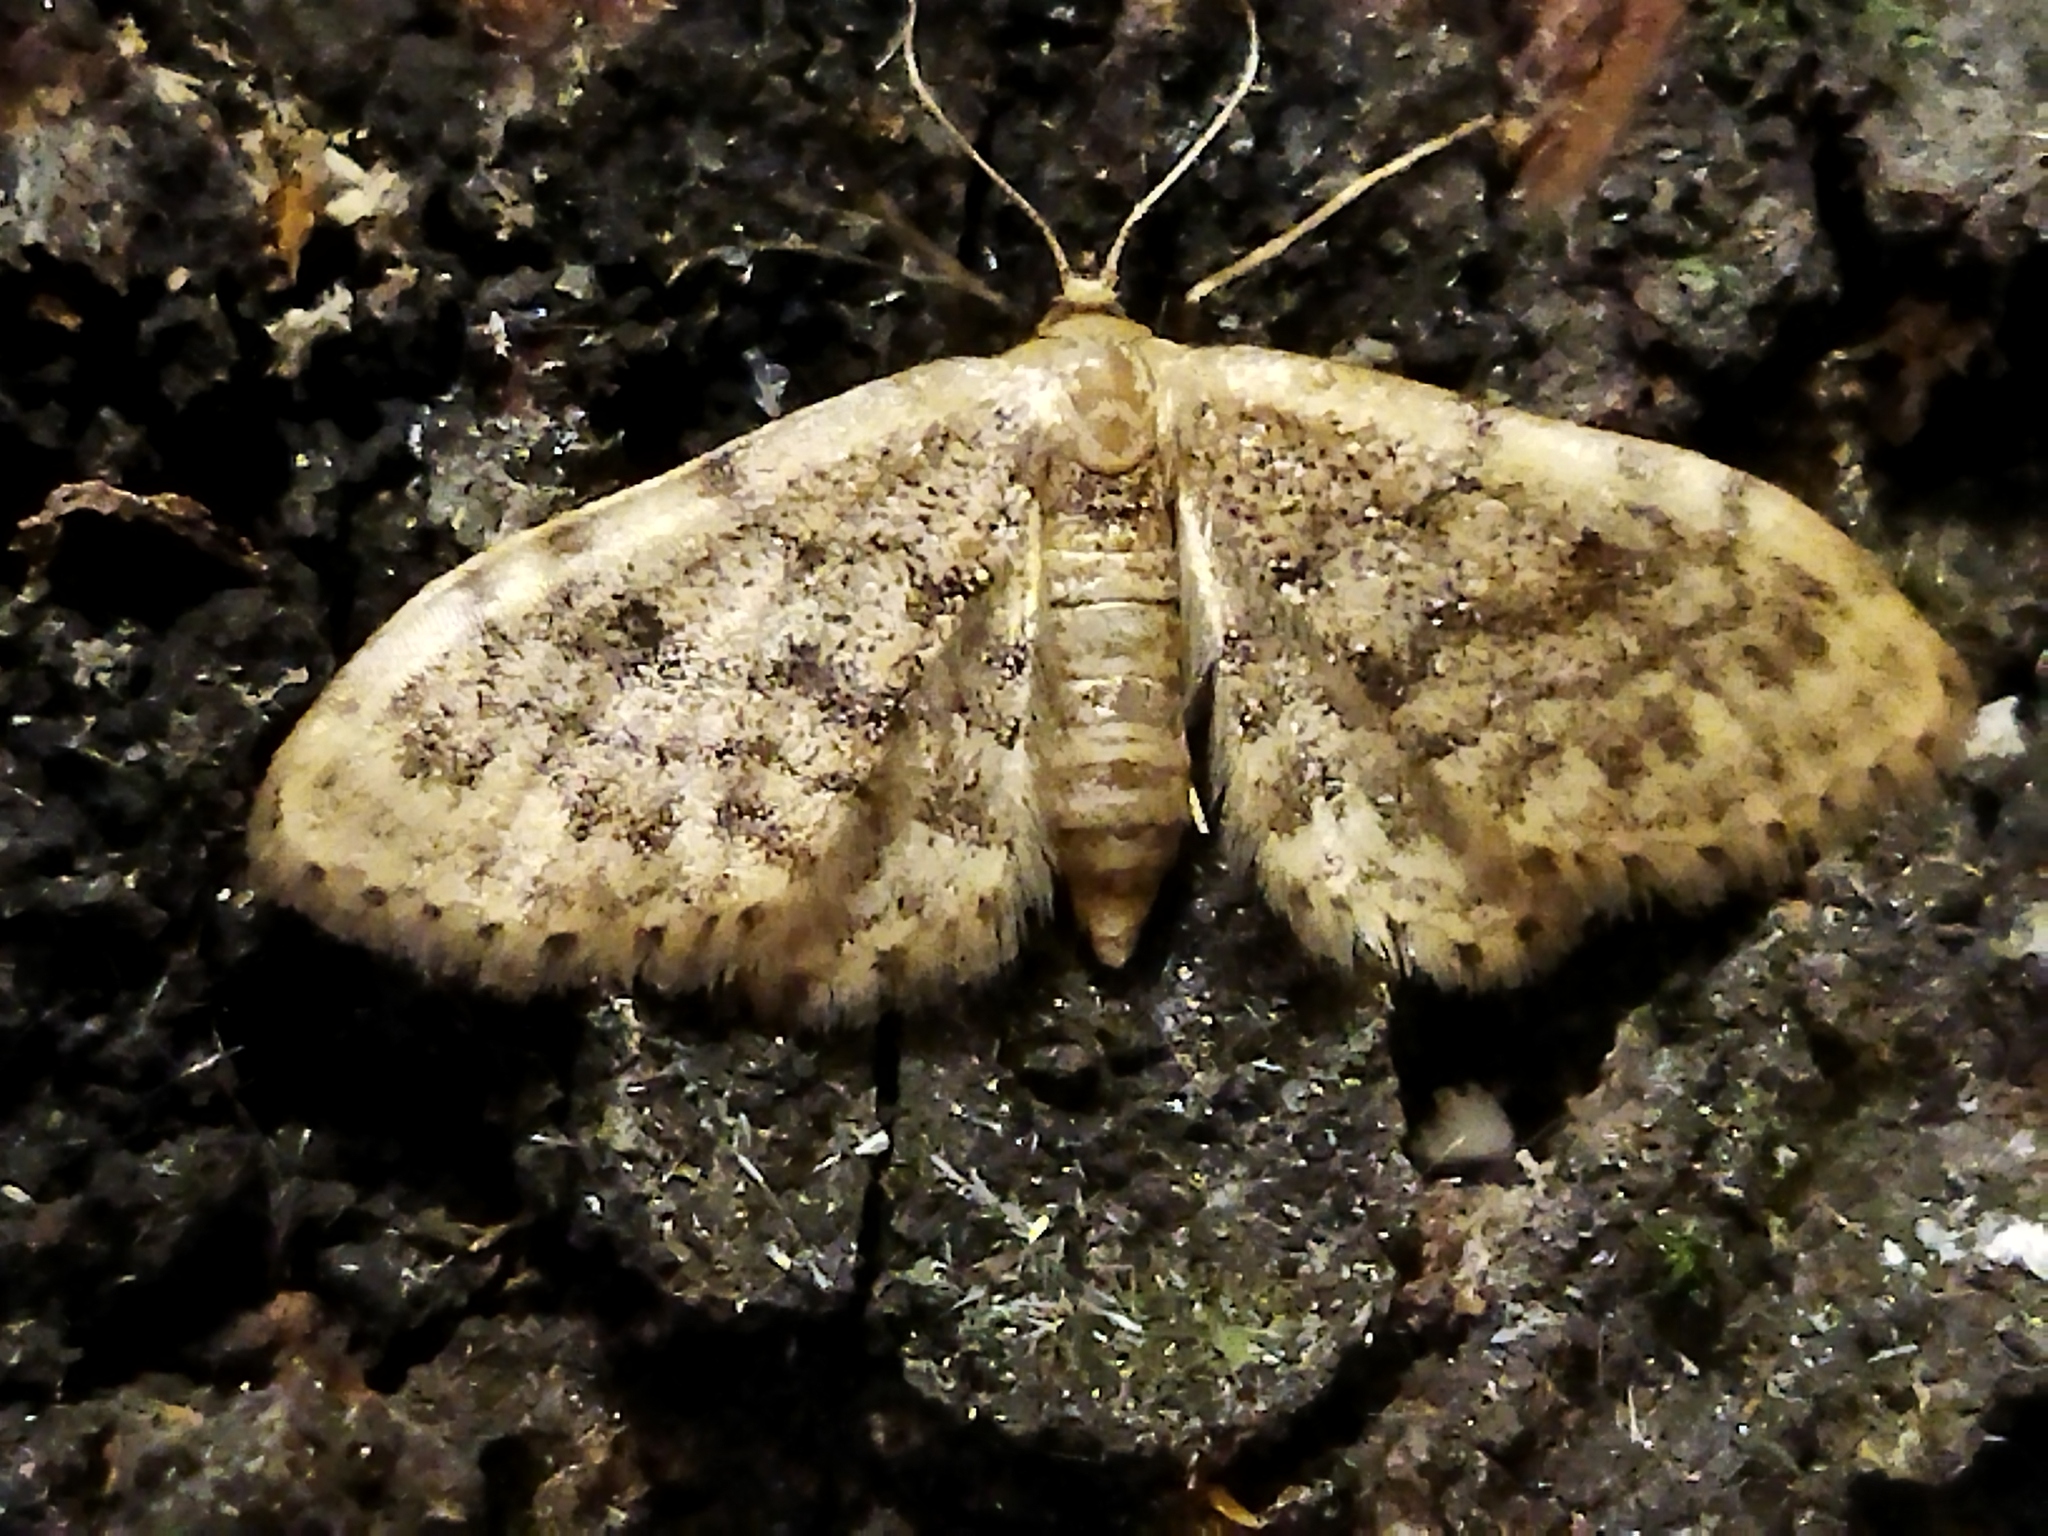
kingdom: Animalia
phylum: Arthropoda
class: Insecta
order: Lepidoptera
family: Geometridae
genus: Idaea
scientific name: Idaea inquinata
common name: Rusty wave
